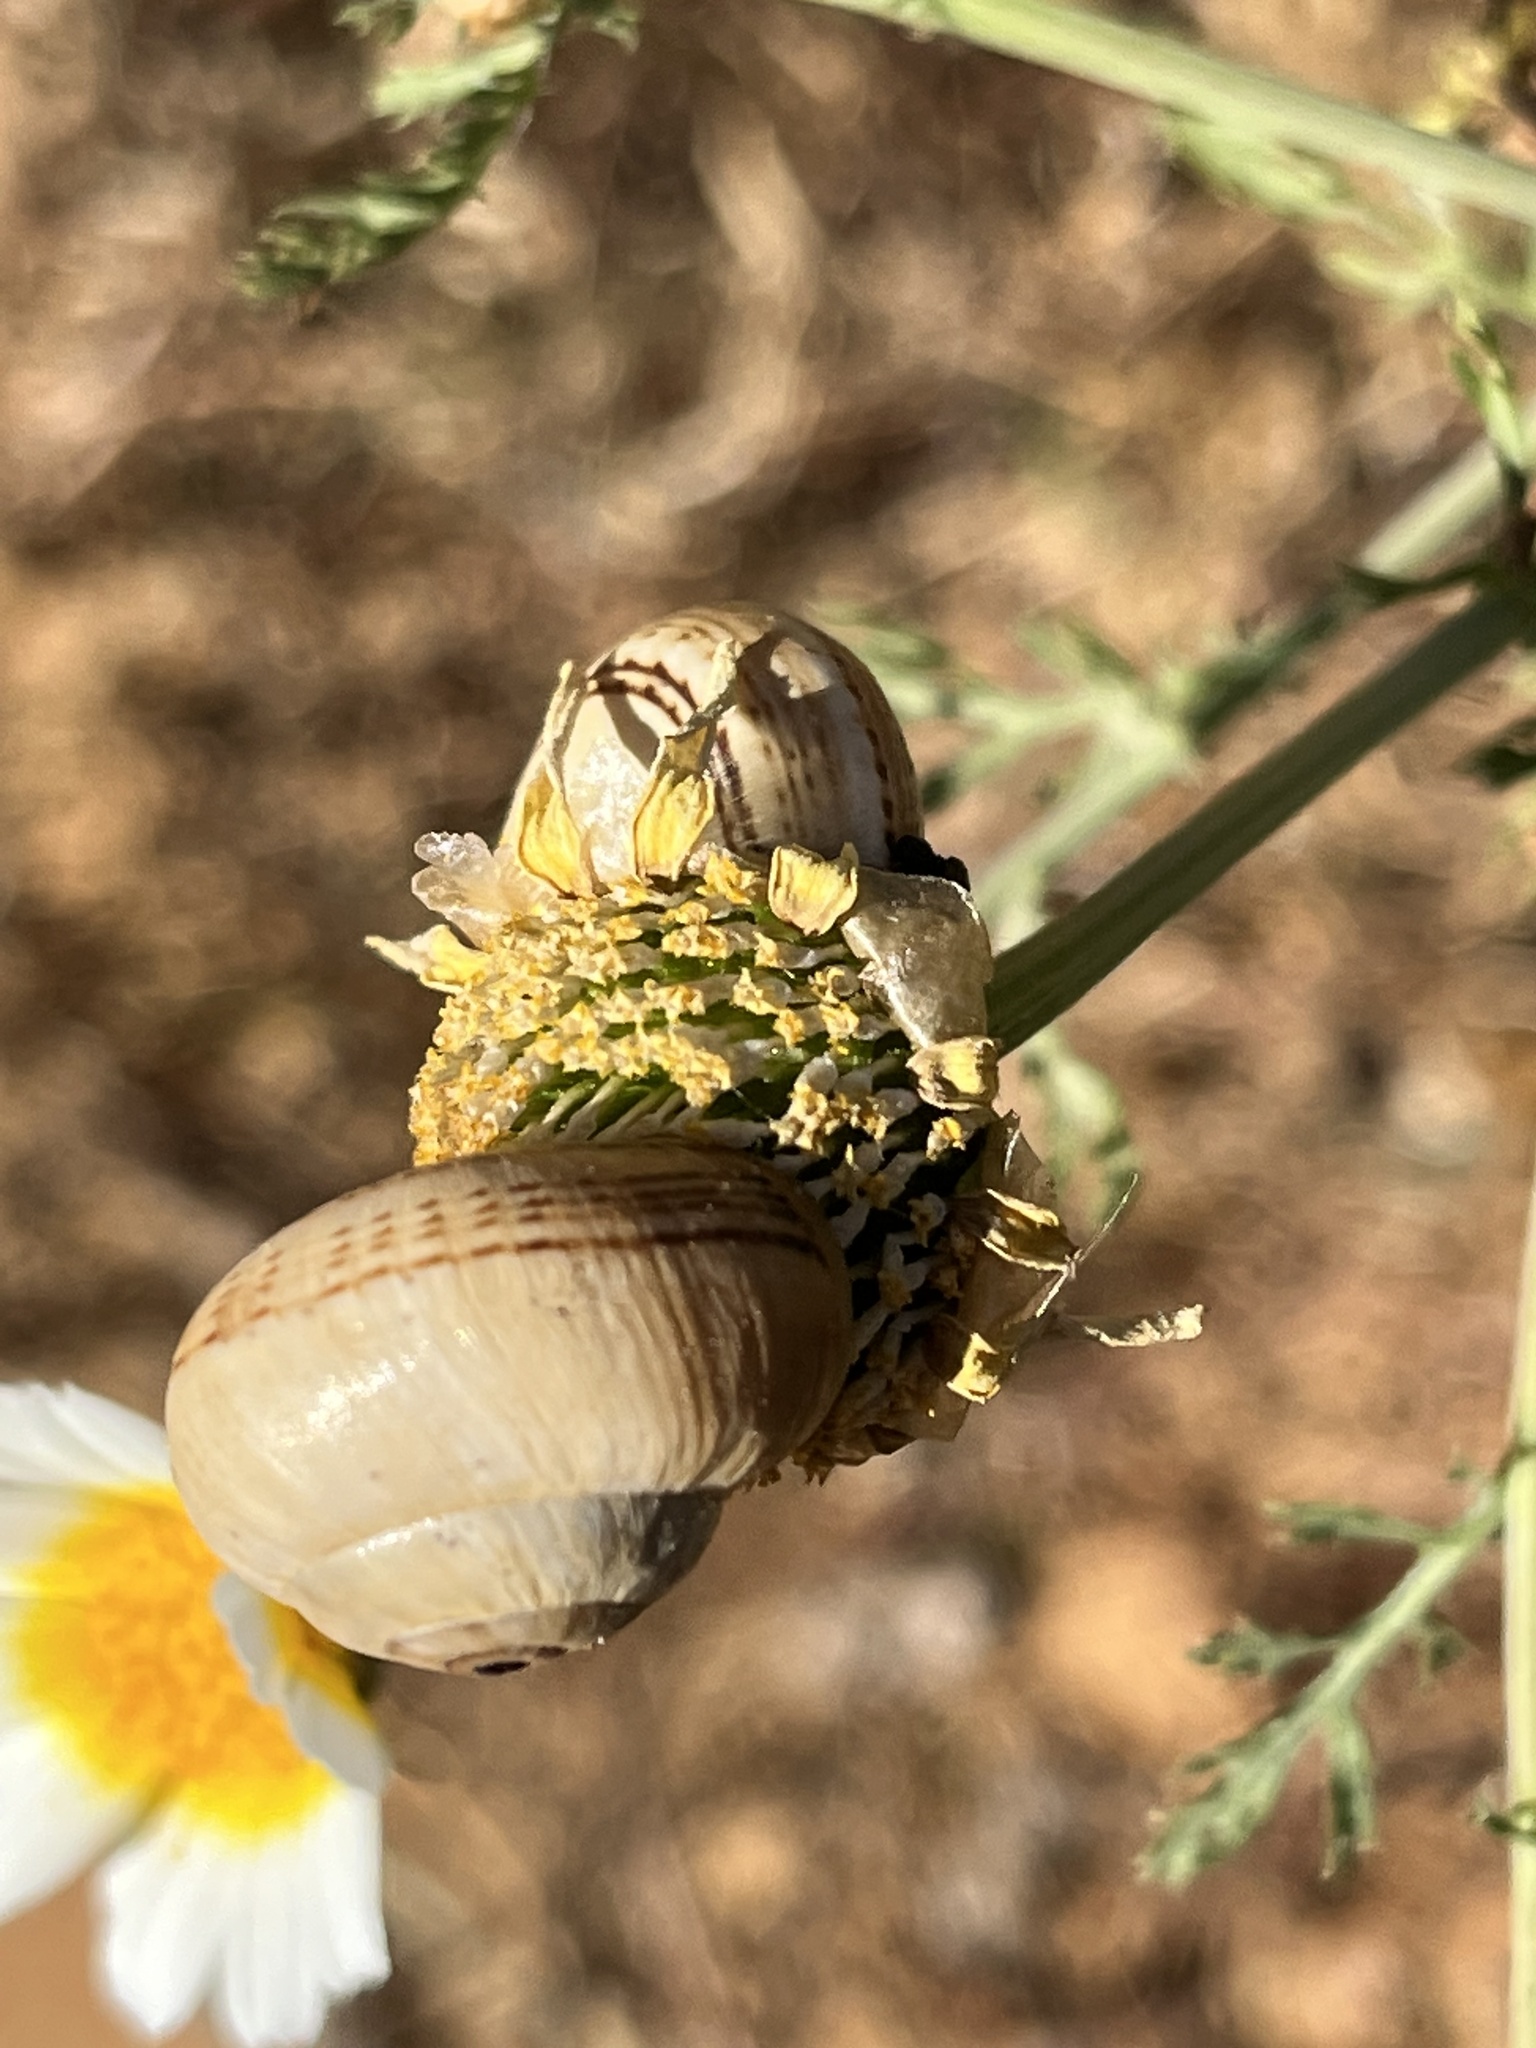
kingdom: Animalia
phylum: Mollusca
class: Gastropoda
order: Stylommatophora
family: Helicidae
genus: Theba
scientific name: Theba pisana
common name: White snail
